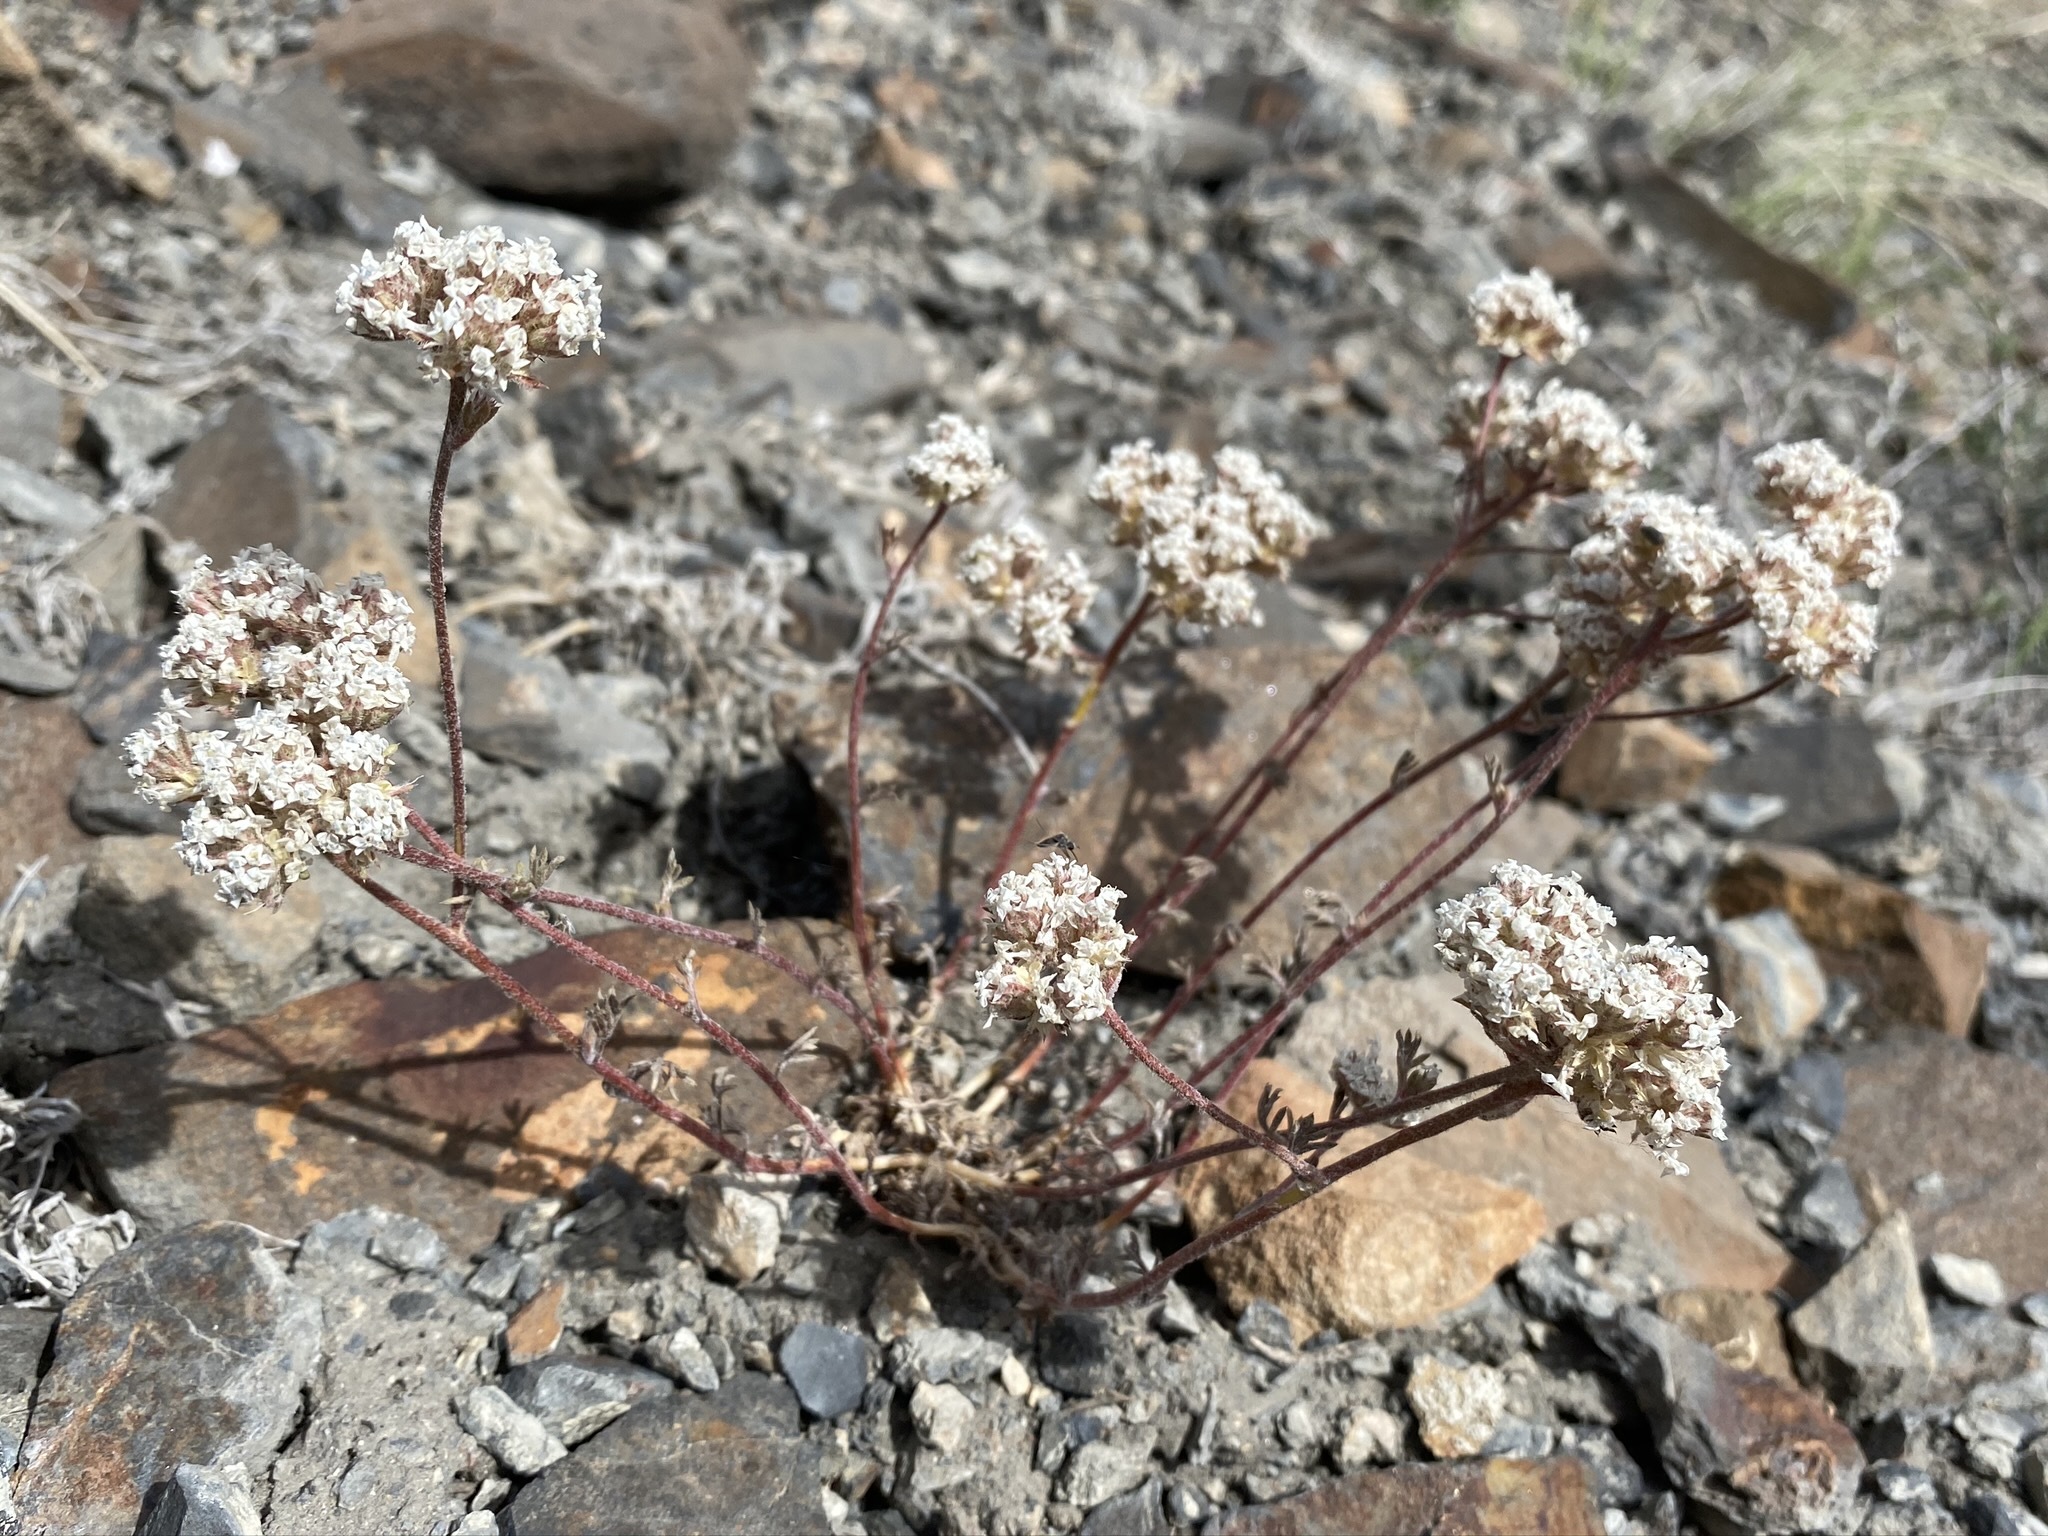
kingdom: Plantae
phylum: Tracheophyta
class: Magnoliopsida
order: Ericales
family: Polemoniaceae
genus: Ipomopsis
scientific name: Ipomopsis congesta
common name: Ball-head gilia
